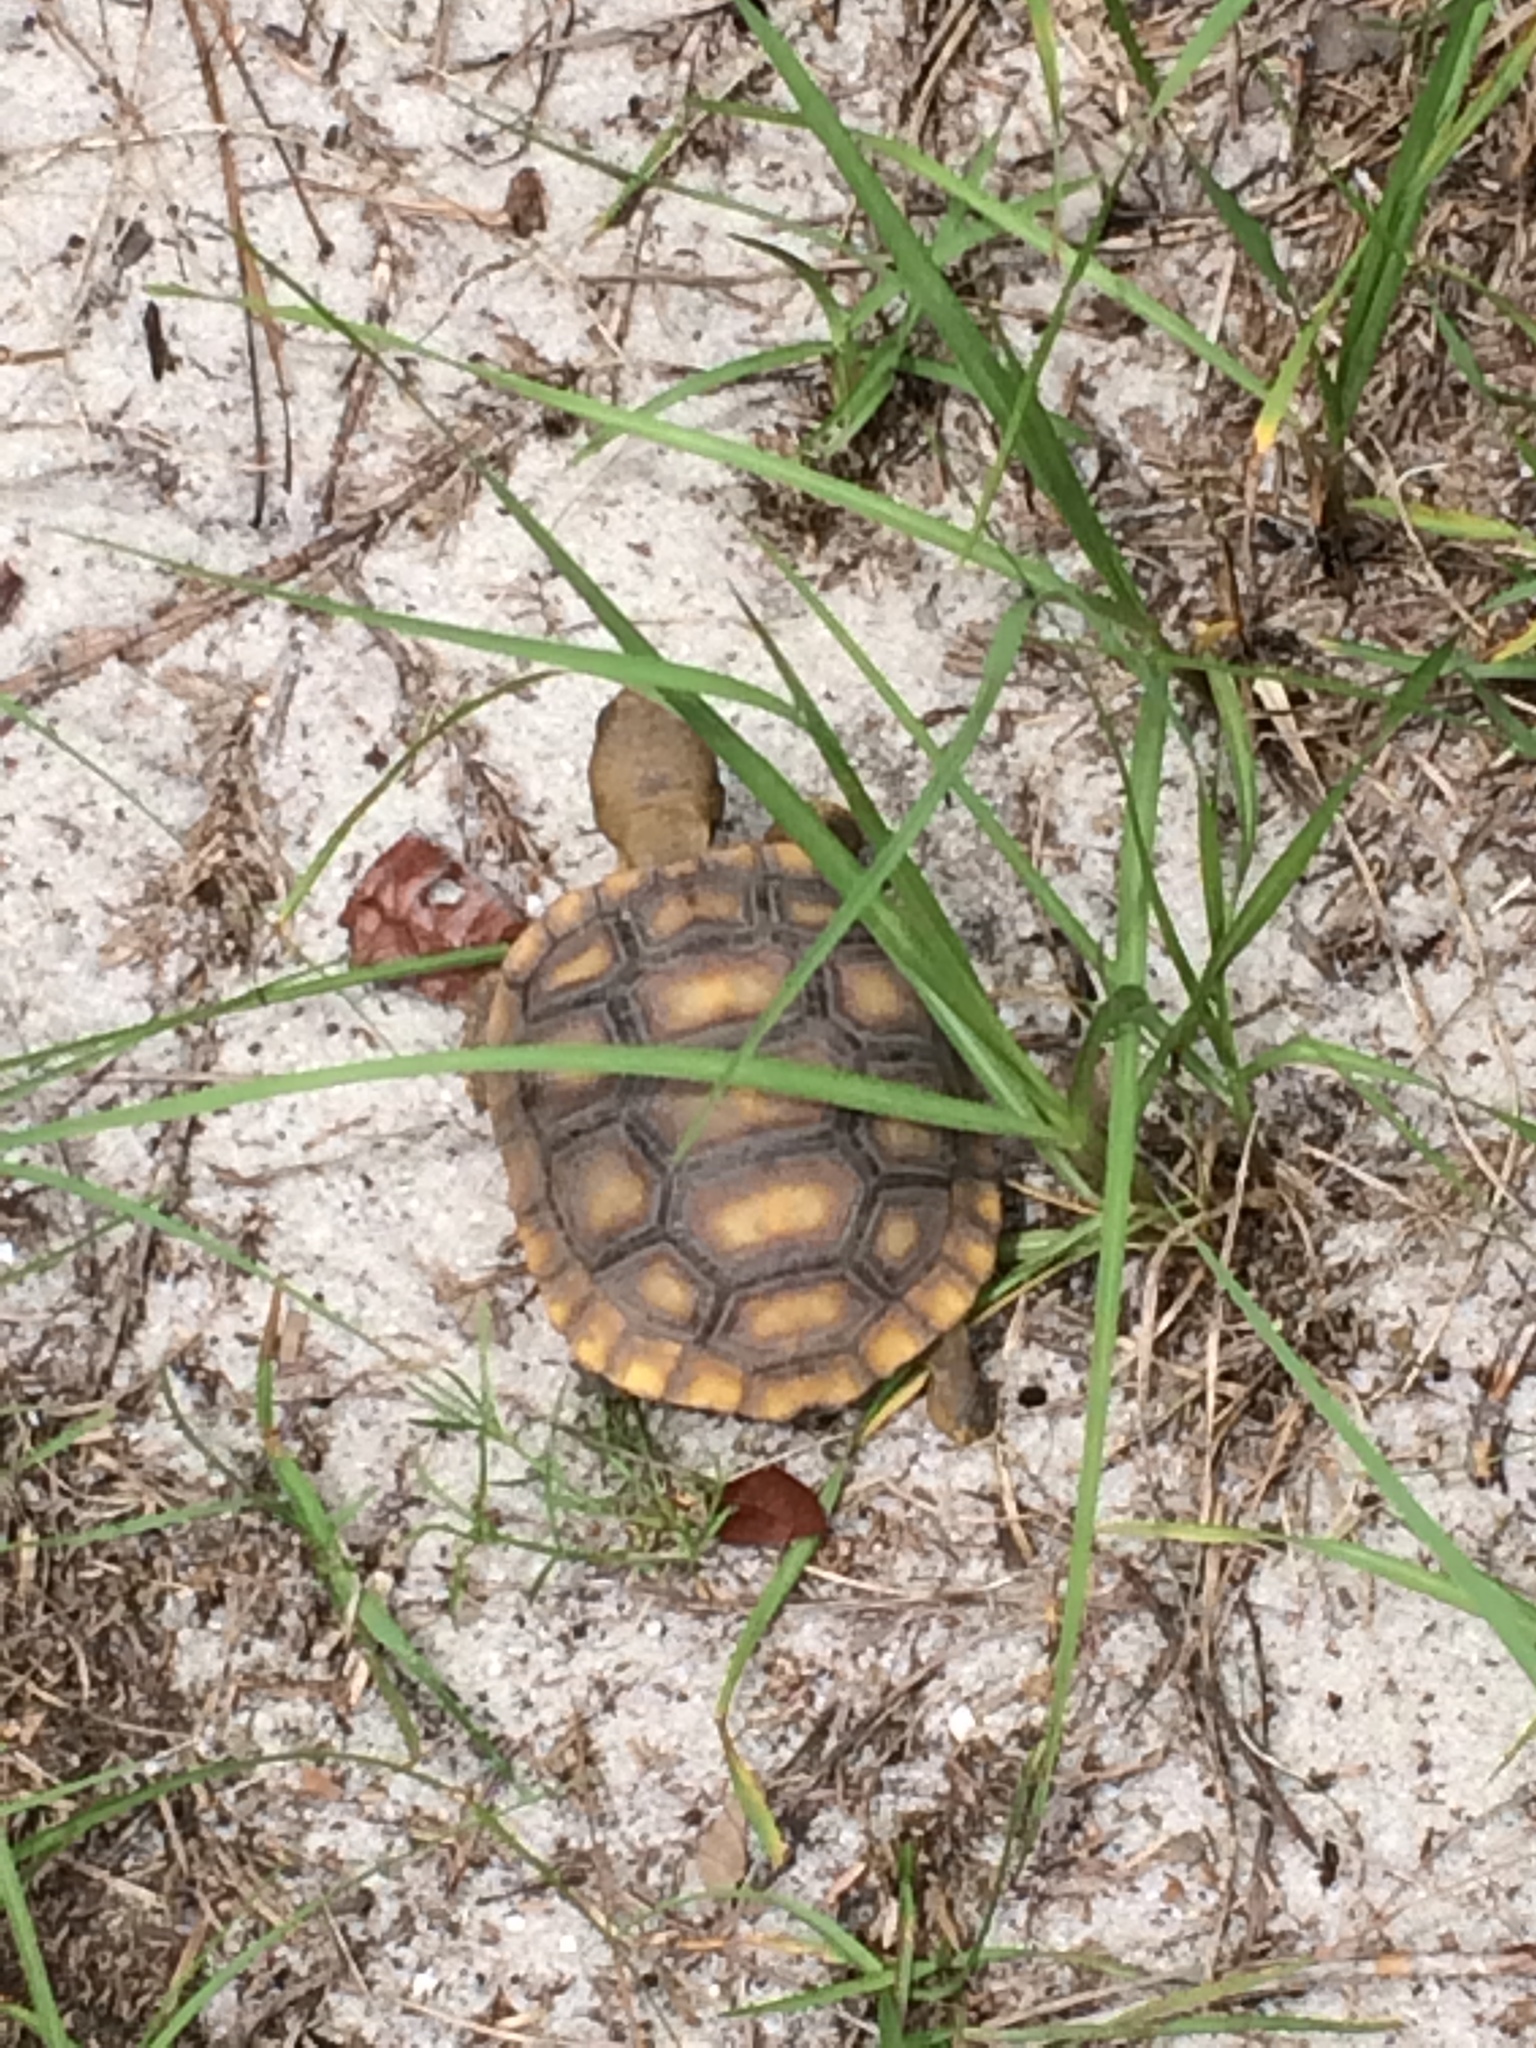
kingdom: Animalia
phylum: Chordata
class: Testudines
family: Testudinidae
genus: Gopherus
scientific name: Gopherus polyphemus
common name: Florida gopher tortoise
